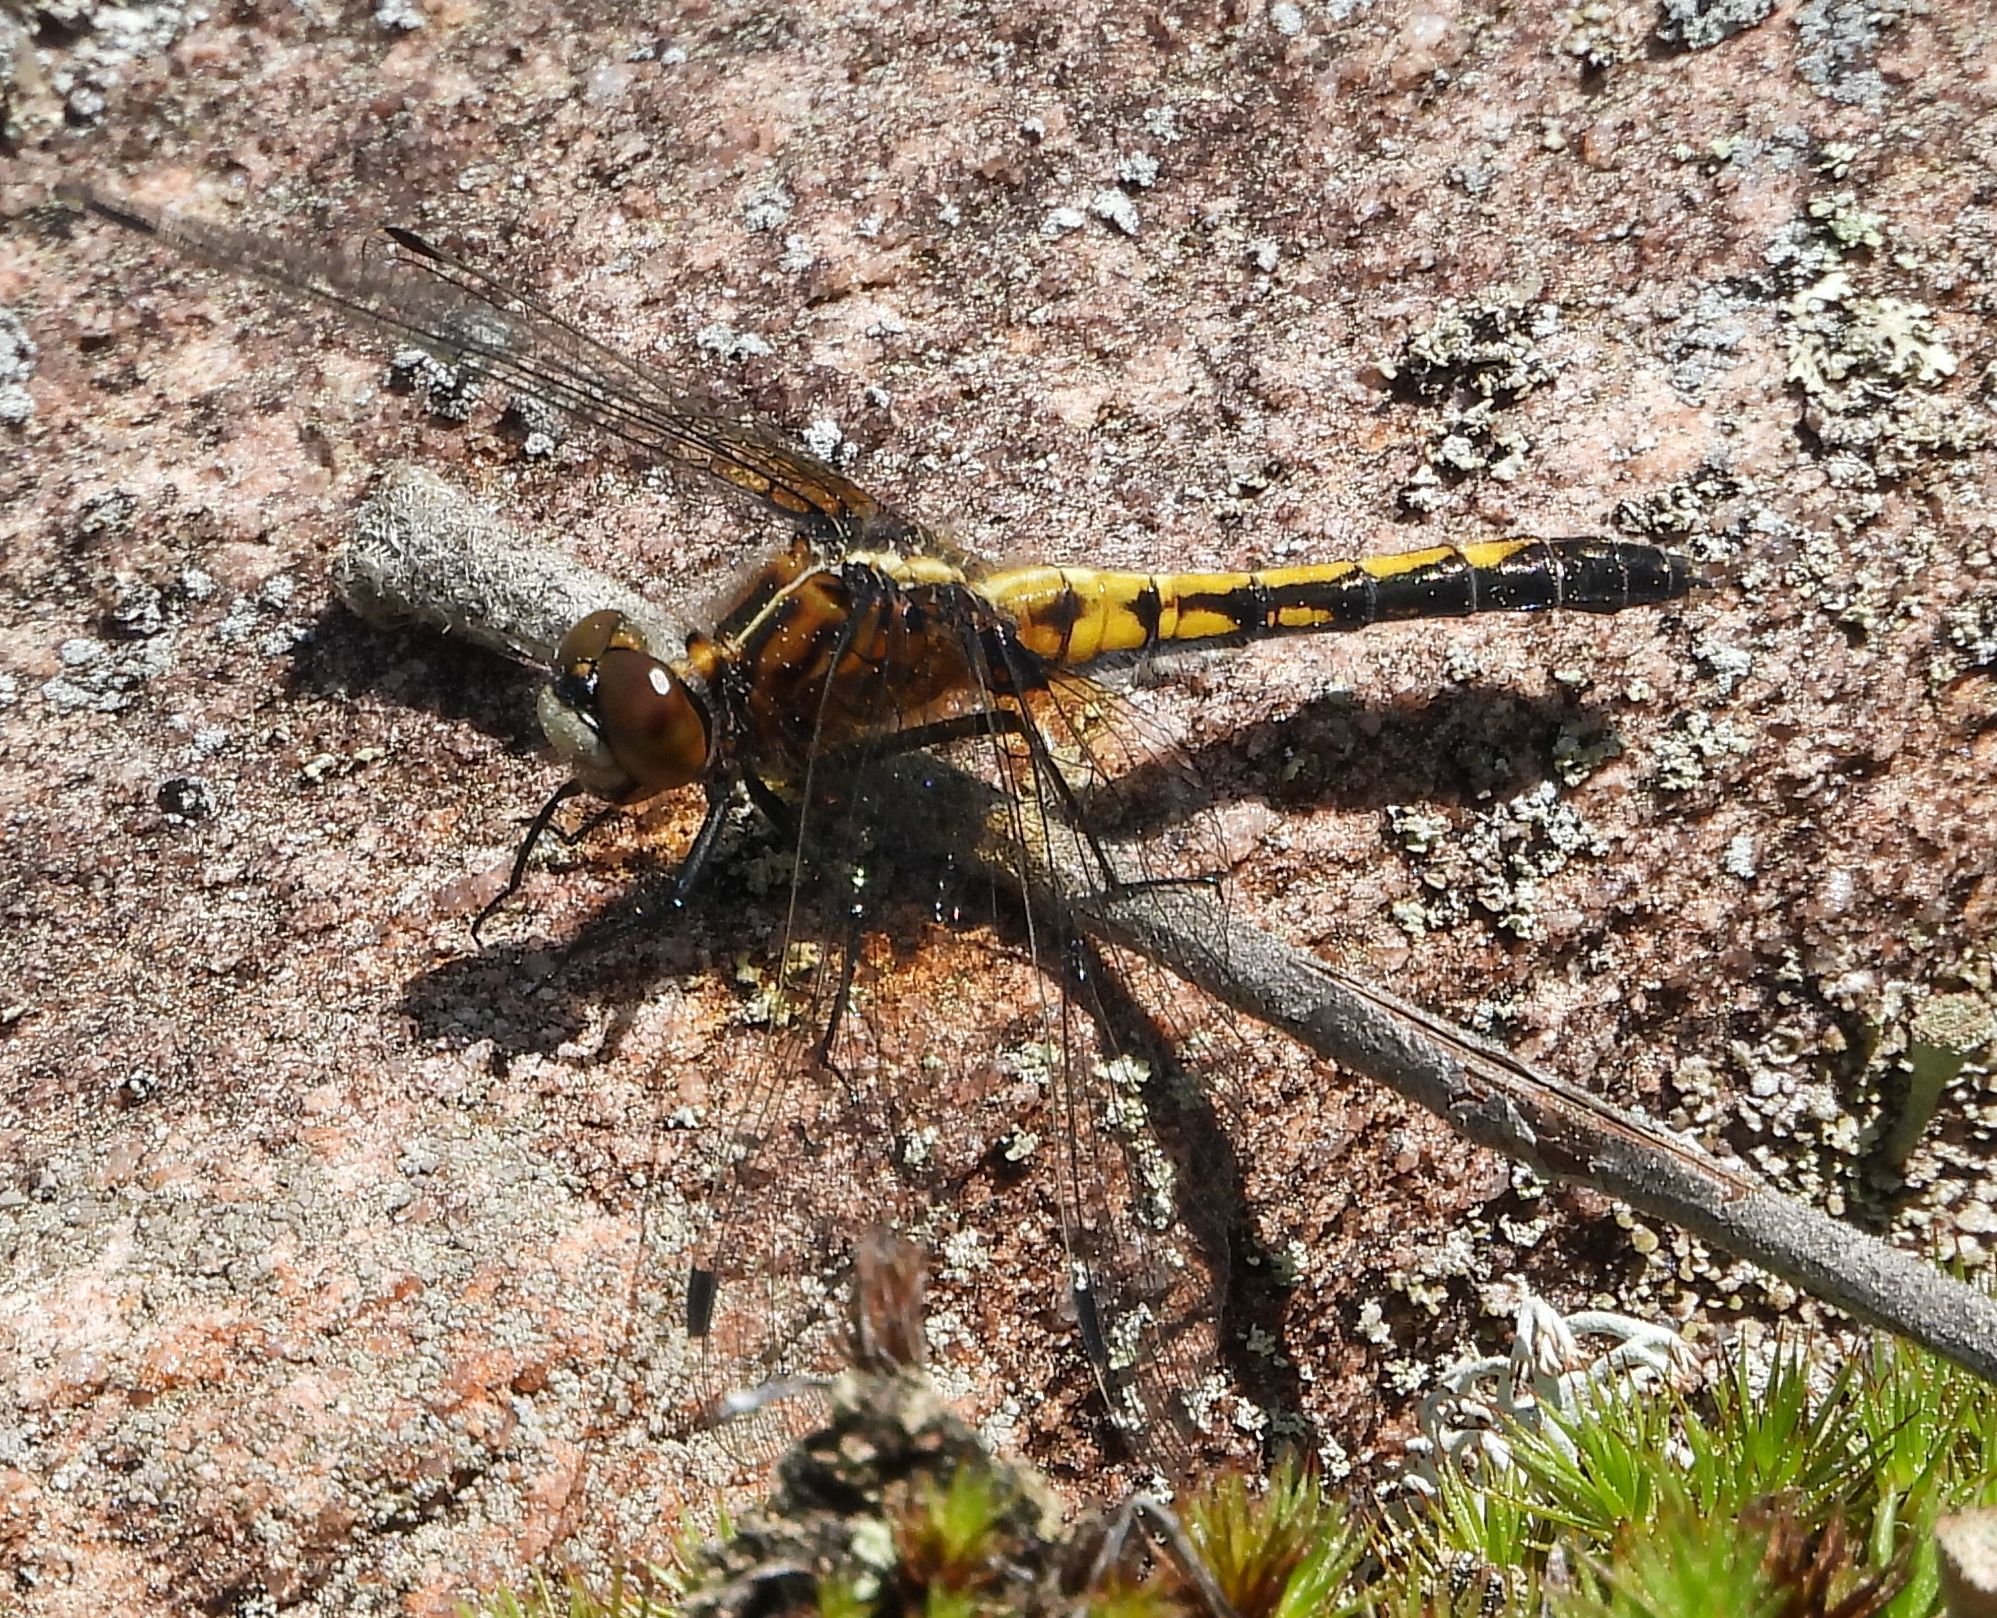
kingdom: Animalia
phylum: Arthropoda
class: Insecta
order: Odonata
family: Libellulidae
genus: Leucorrhinia
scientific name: Leucorrhinia intacta
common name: Dot-tailed whiteface
